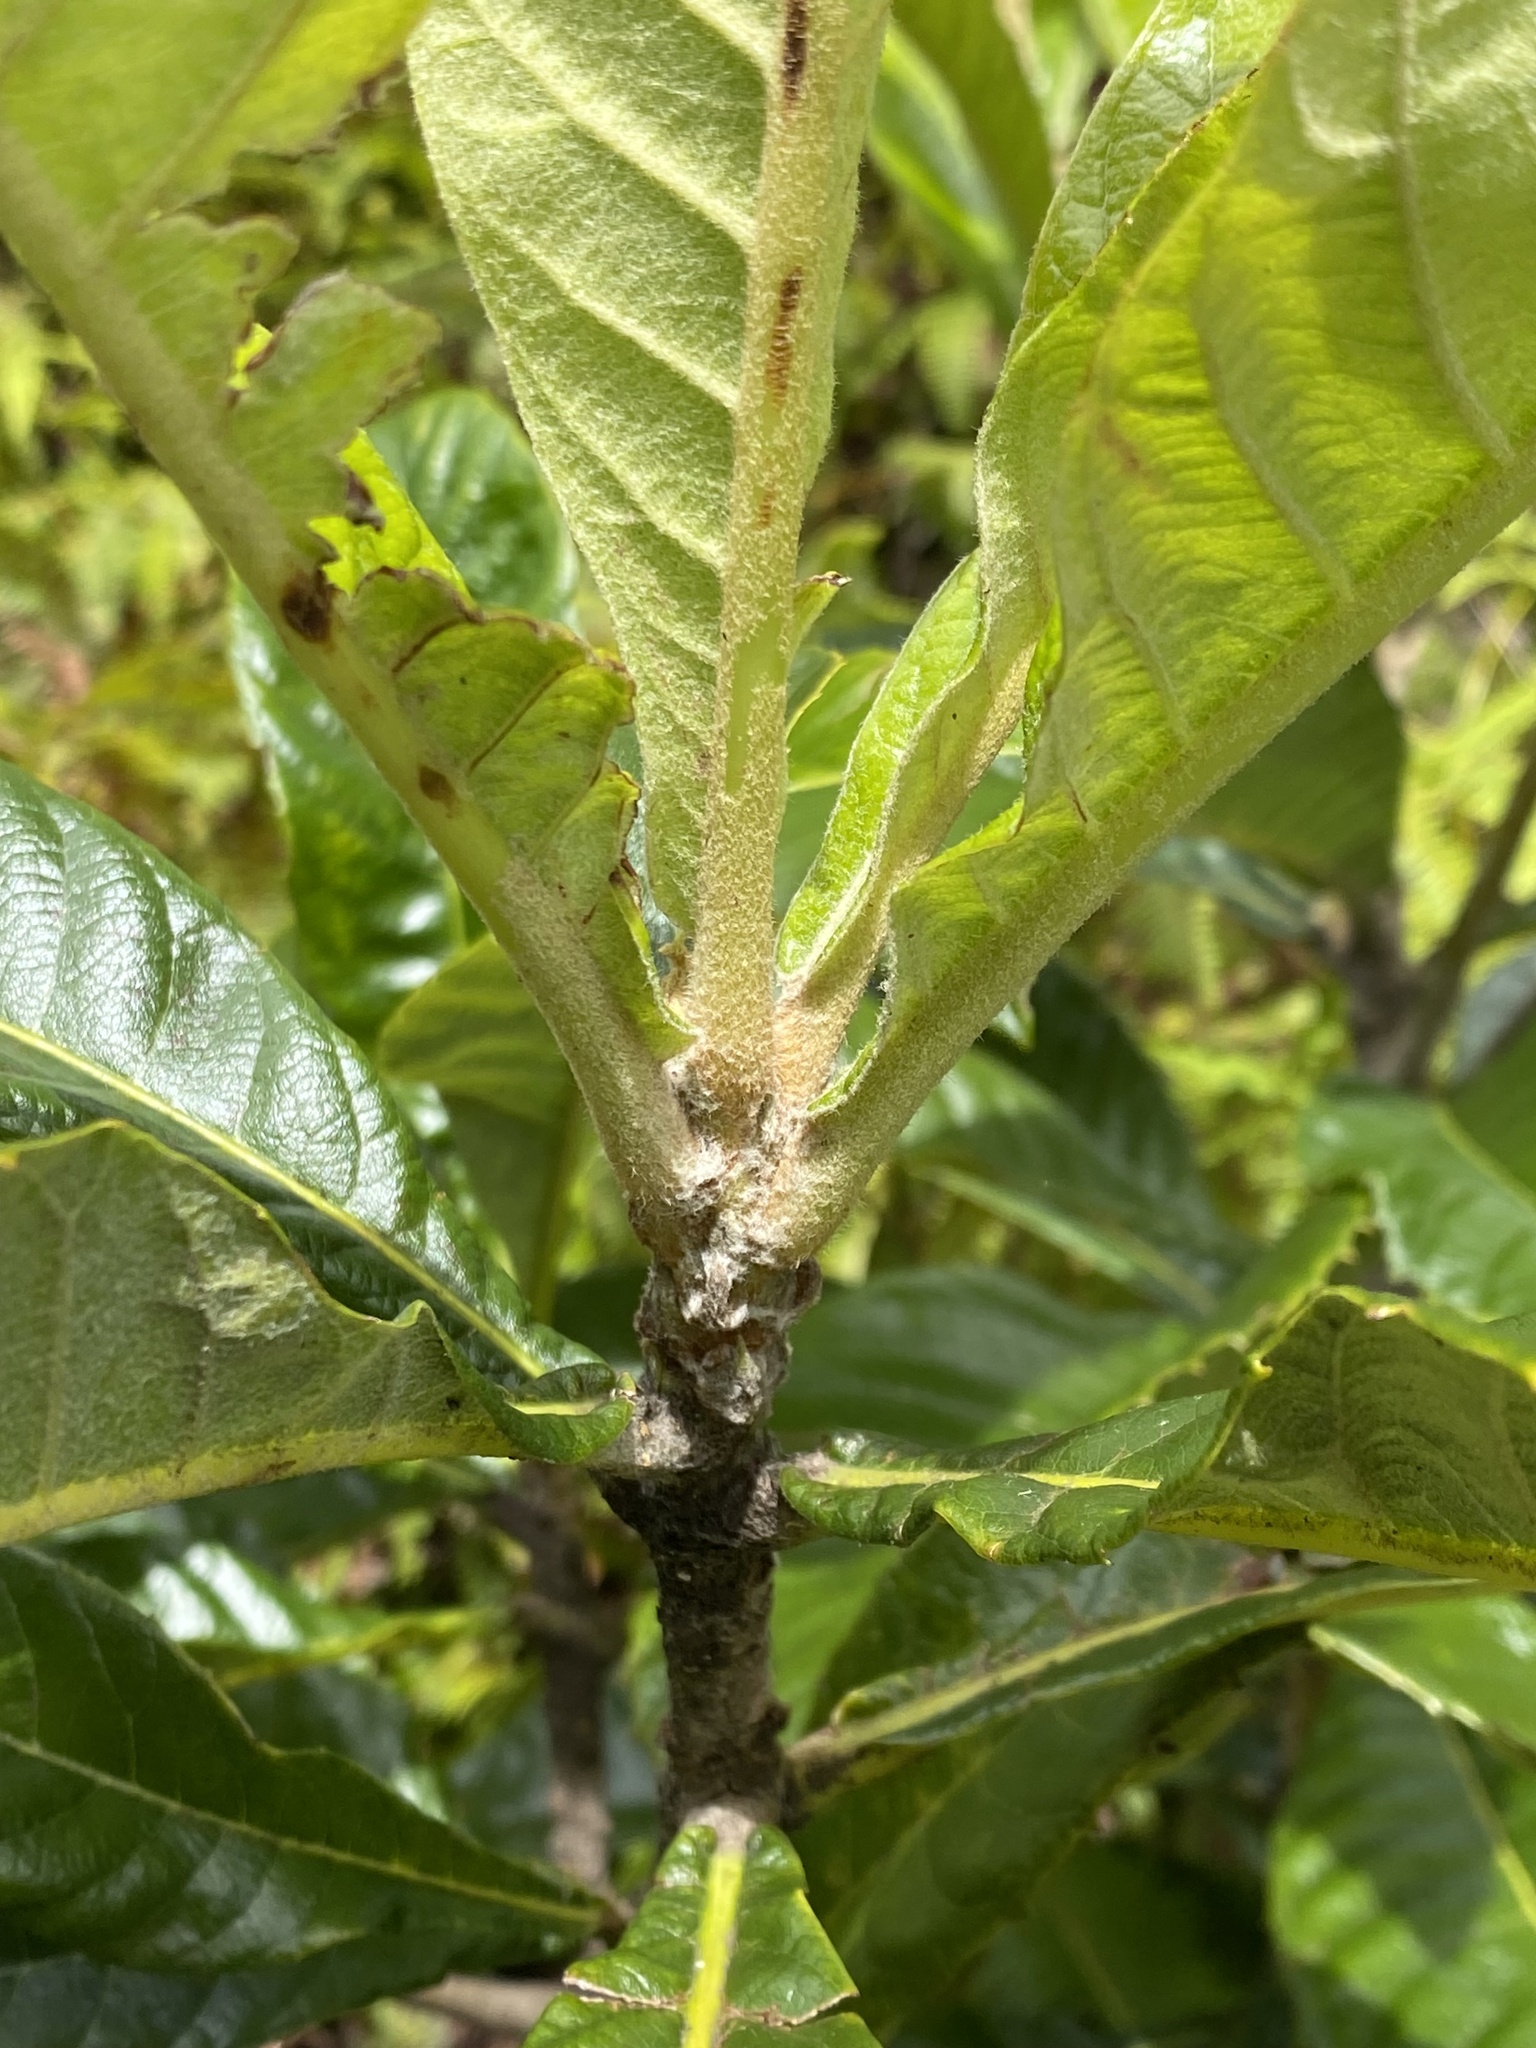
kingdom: Plantae
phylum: Tracheophyta
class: Magnoliopsida
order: Rosales
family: Rosaceae
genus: Rhaphiolepis
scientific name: Rhaphiolepis bibas
